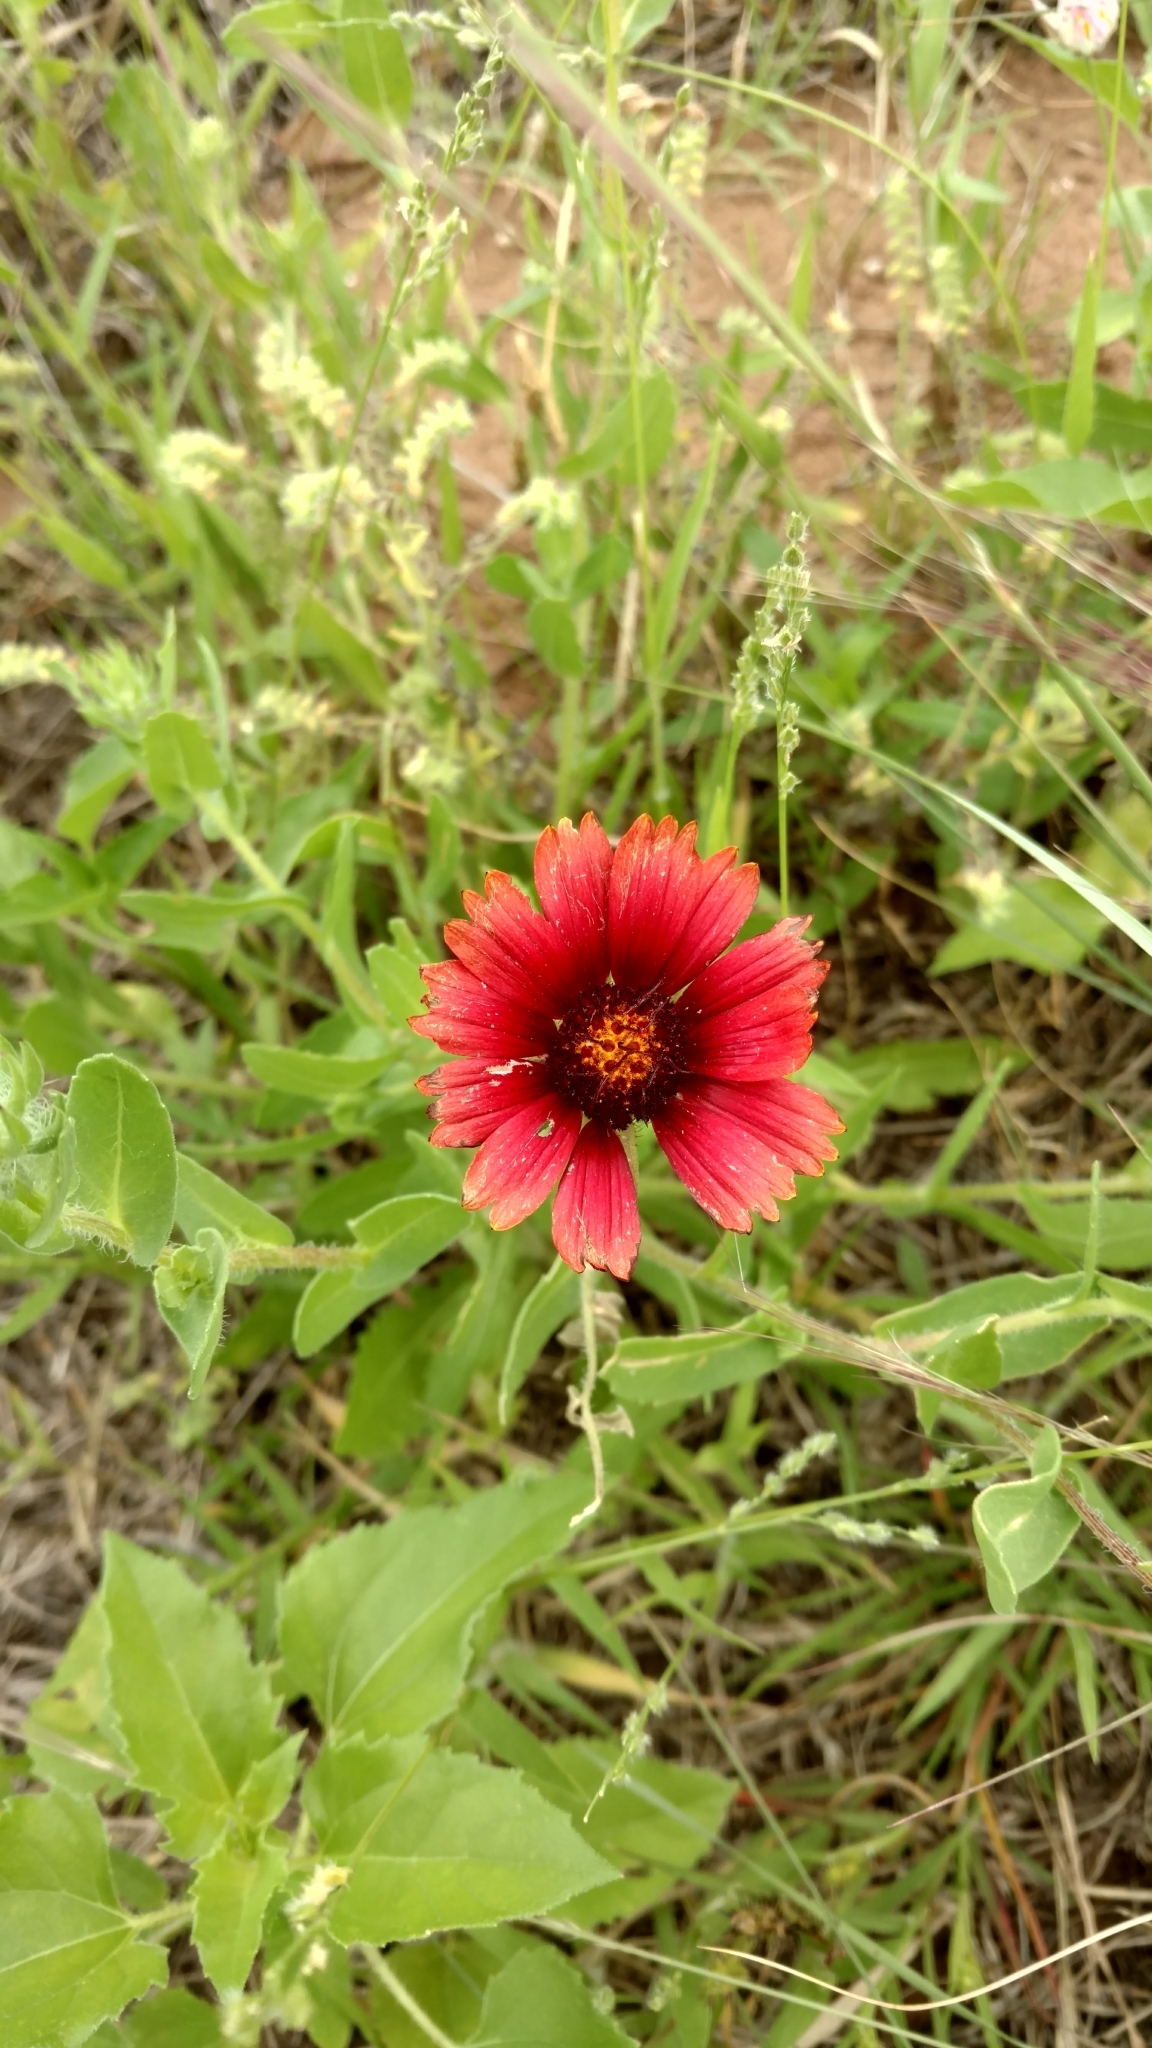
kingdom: Plantae
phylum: Tracheophyta
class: Magnoliopsida
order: Asterales
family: Asteraceae
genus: Gaillardia
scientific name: Gaillardia amblyodon
